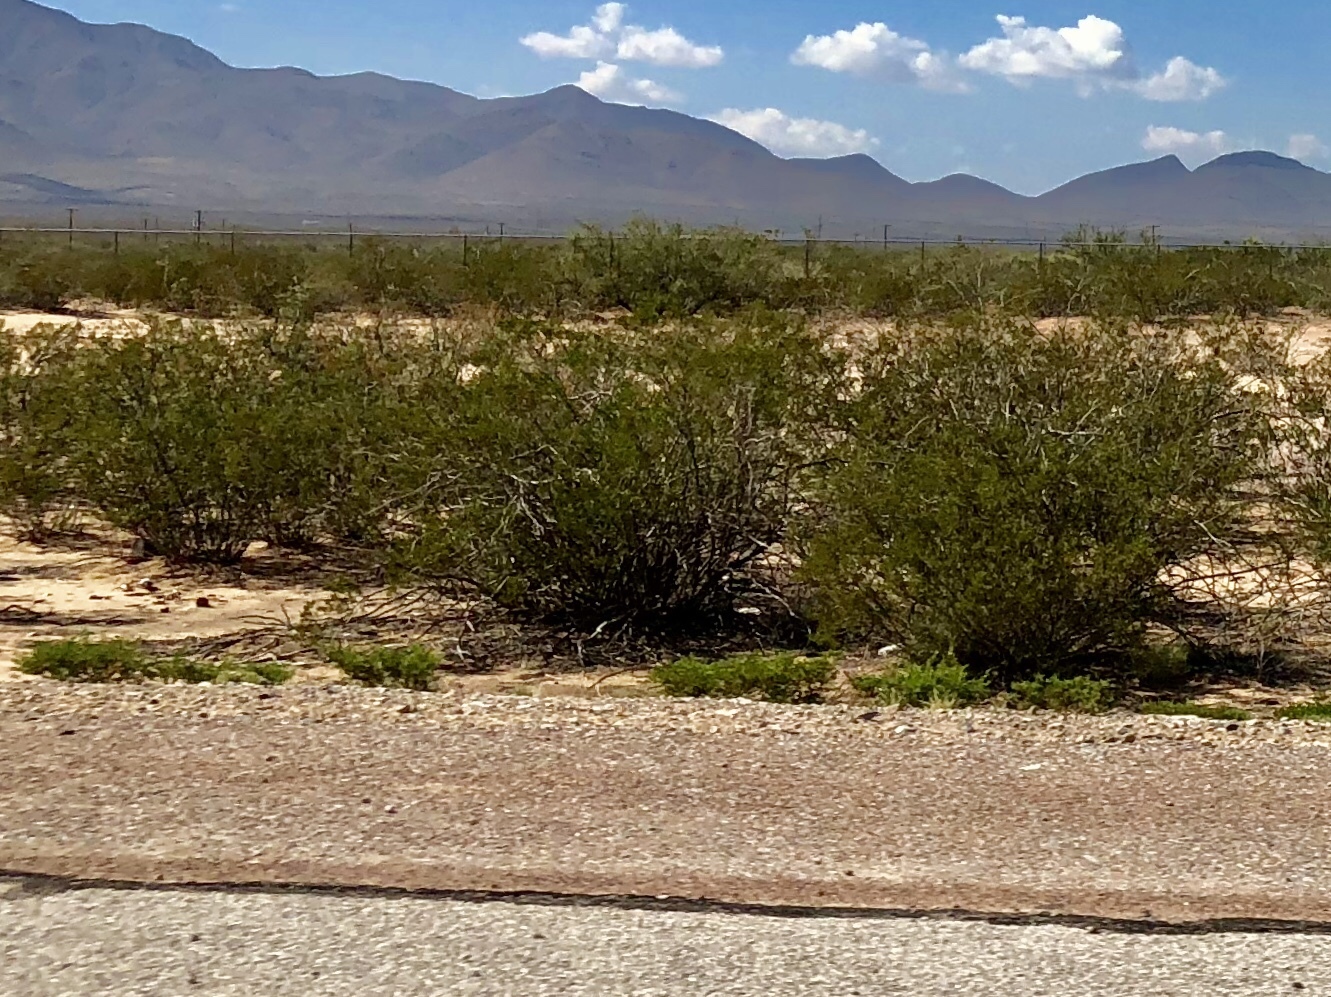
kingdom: Plantae
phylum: Tracheophyta
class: Magnoliopsida
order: Zygophyllales
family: Zygophyllaceae
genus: Larrea
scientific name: Larrea tridentata
